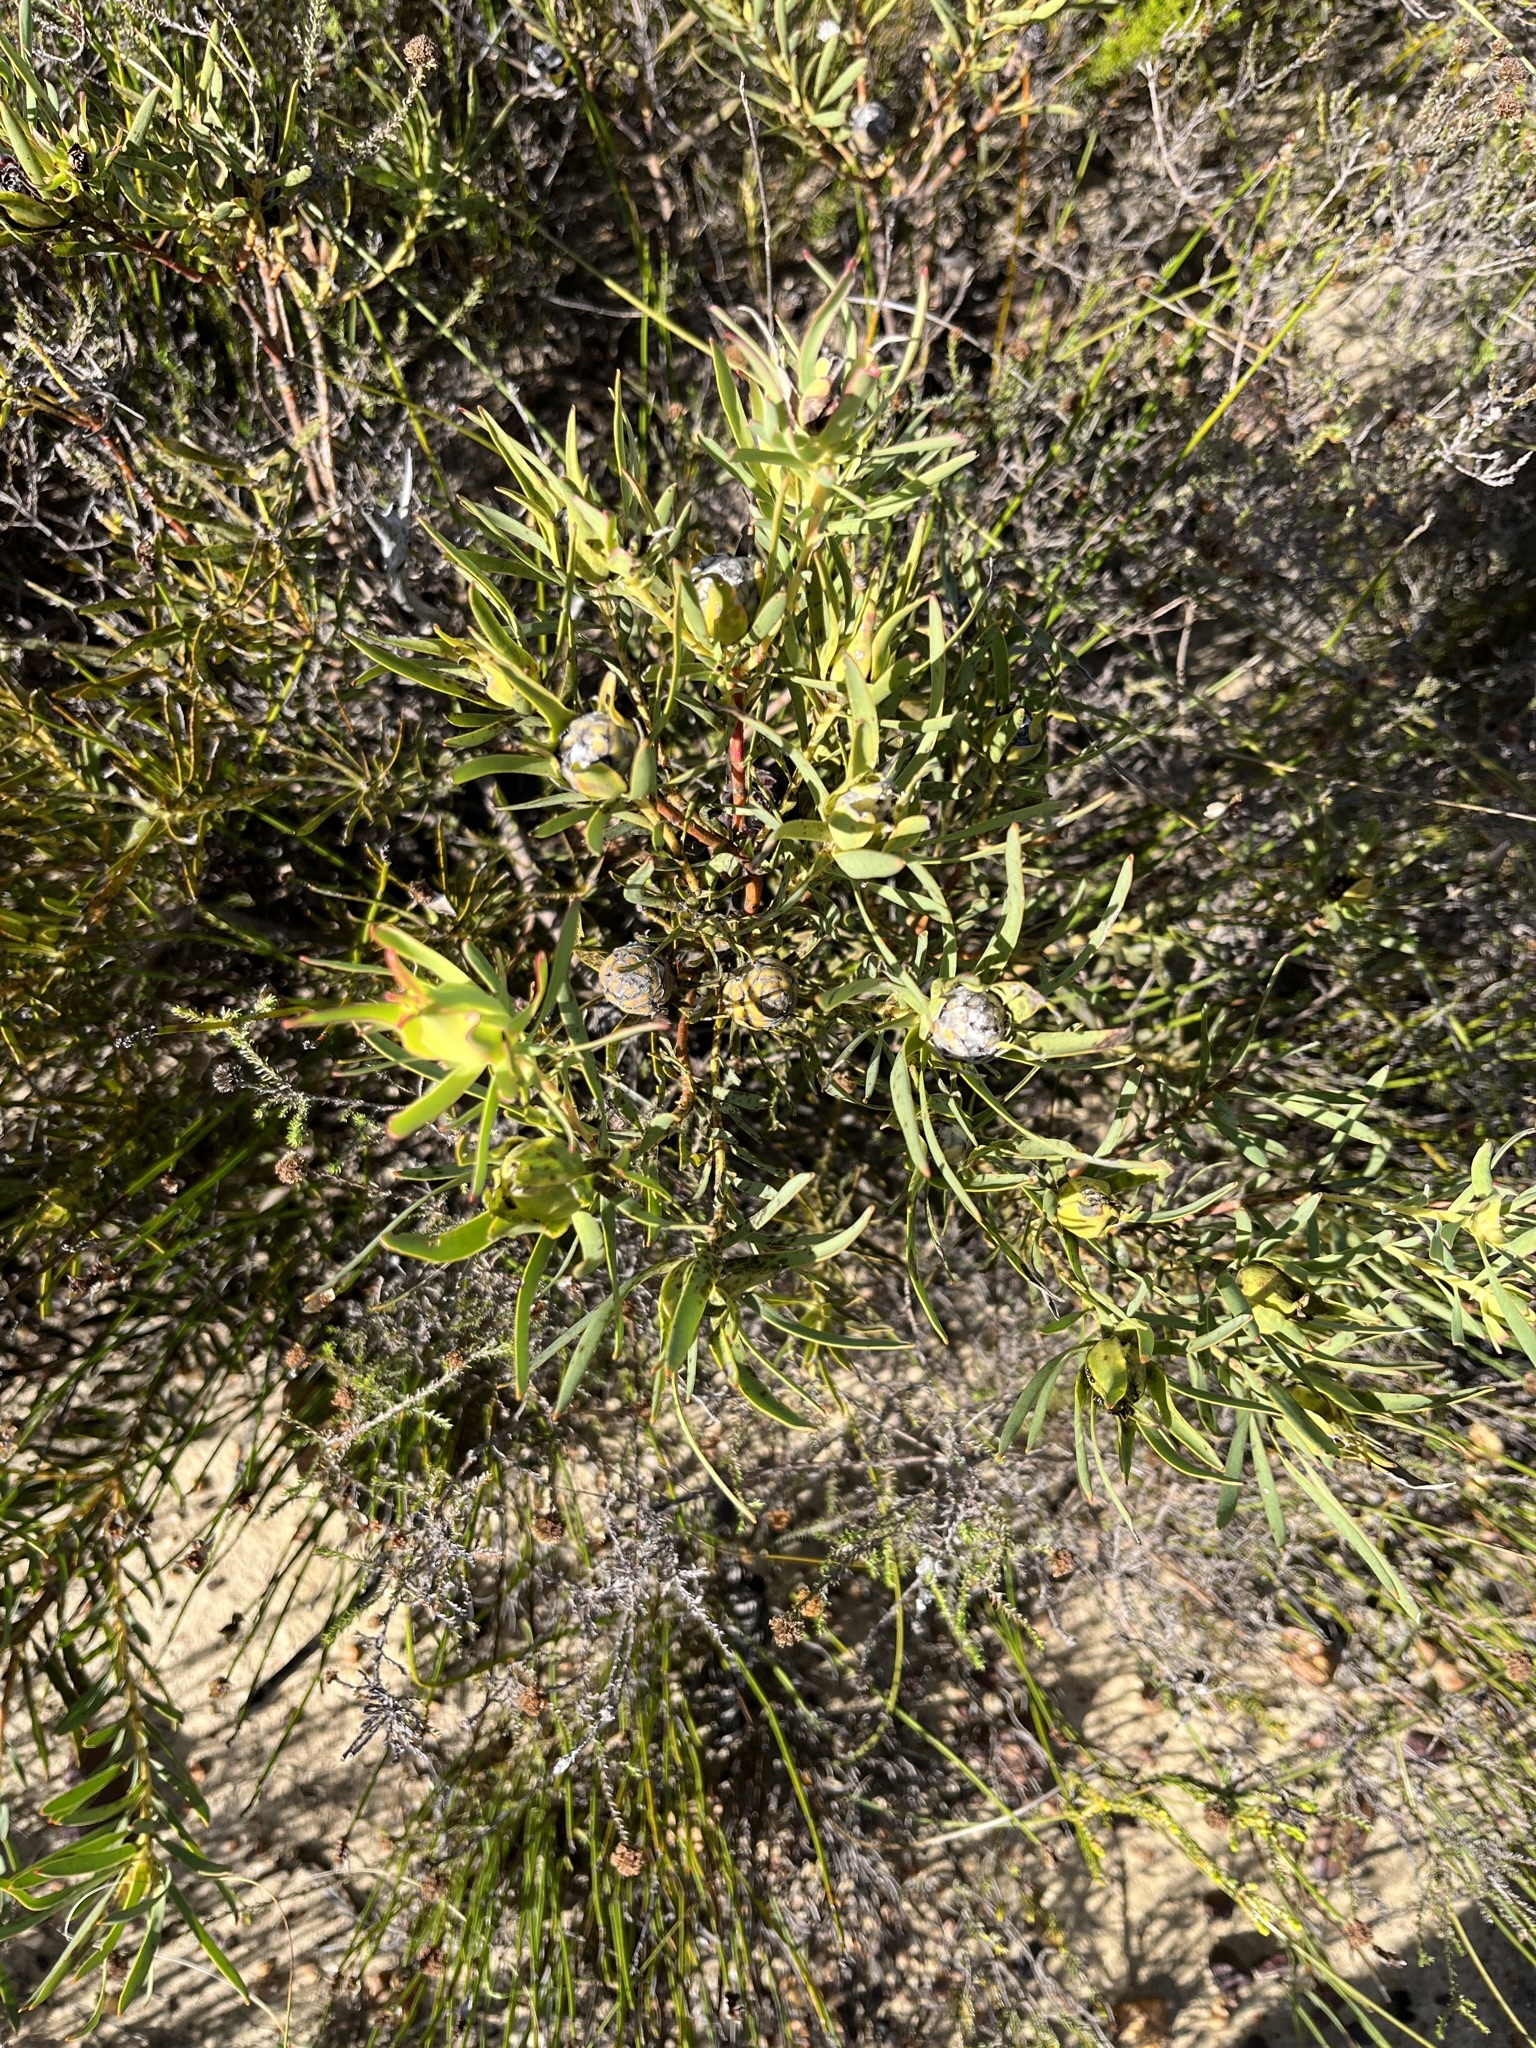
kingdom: Plantae
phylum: Tracheophyta
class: Magnoliopsida
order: Proteales
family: Proteaceae
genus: Leucadendron
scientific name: Leucadendron salignum
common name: Common sunshine conebush
